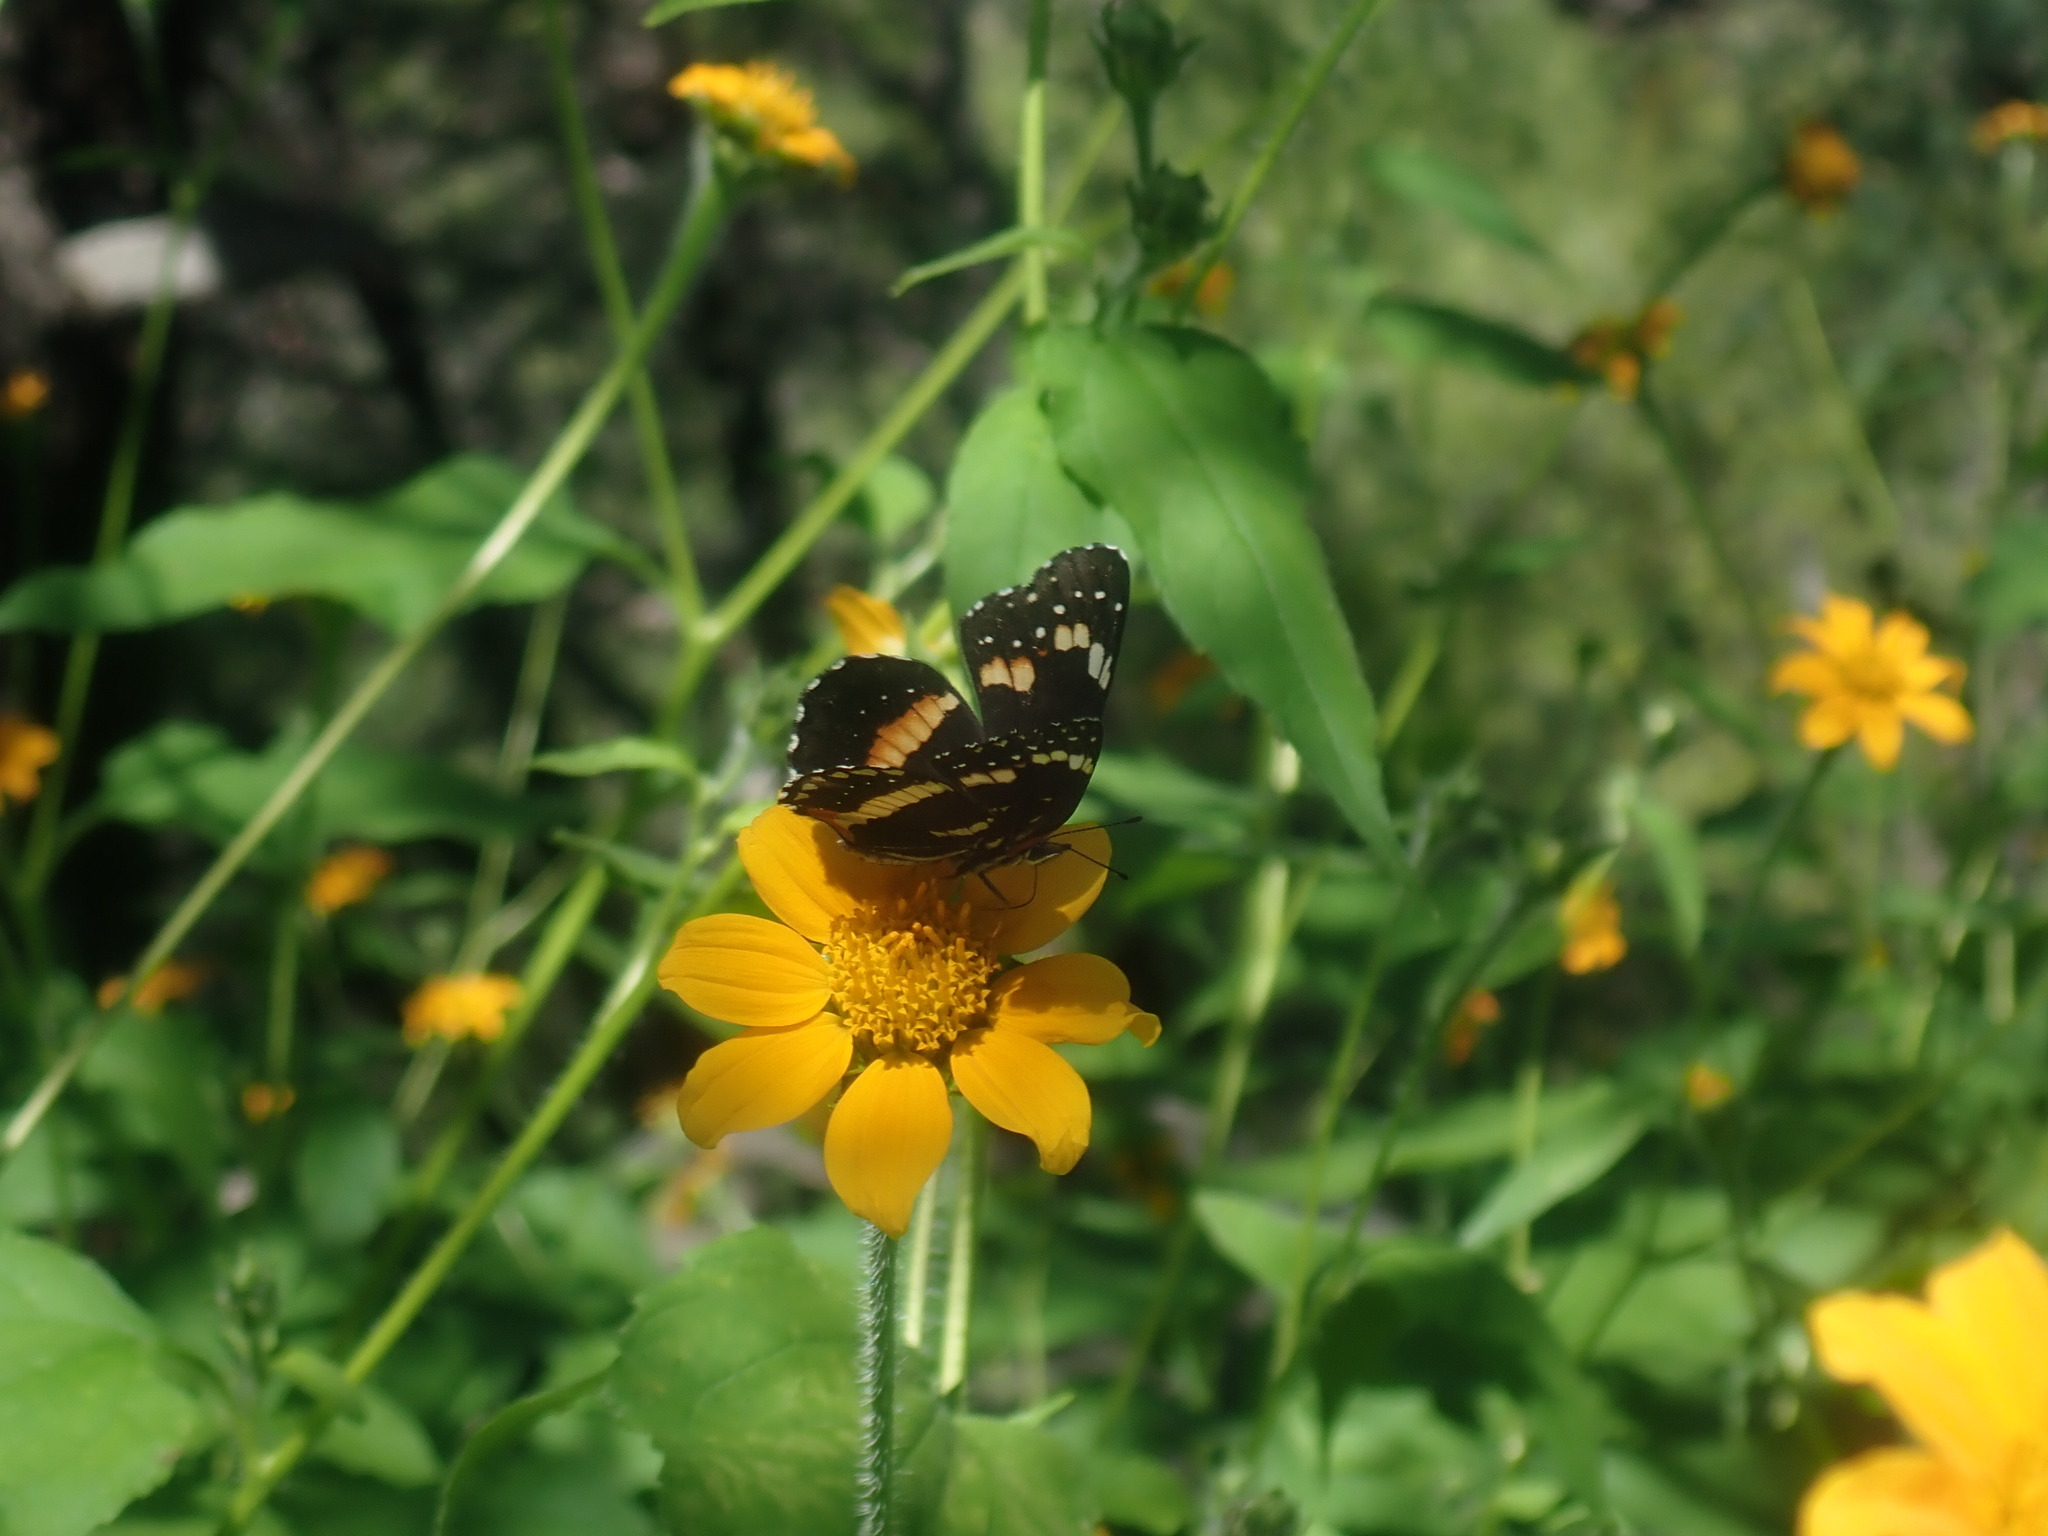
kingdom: Animalia
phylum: Arthropoda
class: Insecta
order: Lepidoptera
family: Nymphalidae
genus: Chlosyne
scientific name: Chlosyne lacinia
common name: Bordered patch
